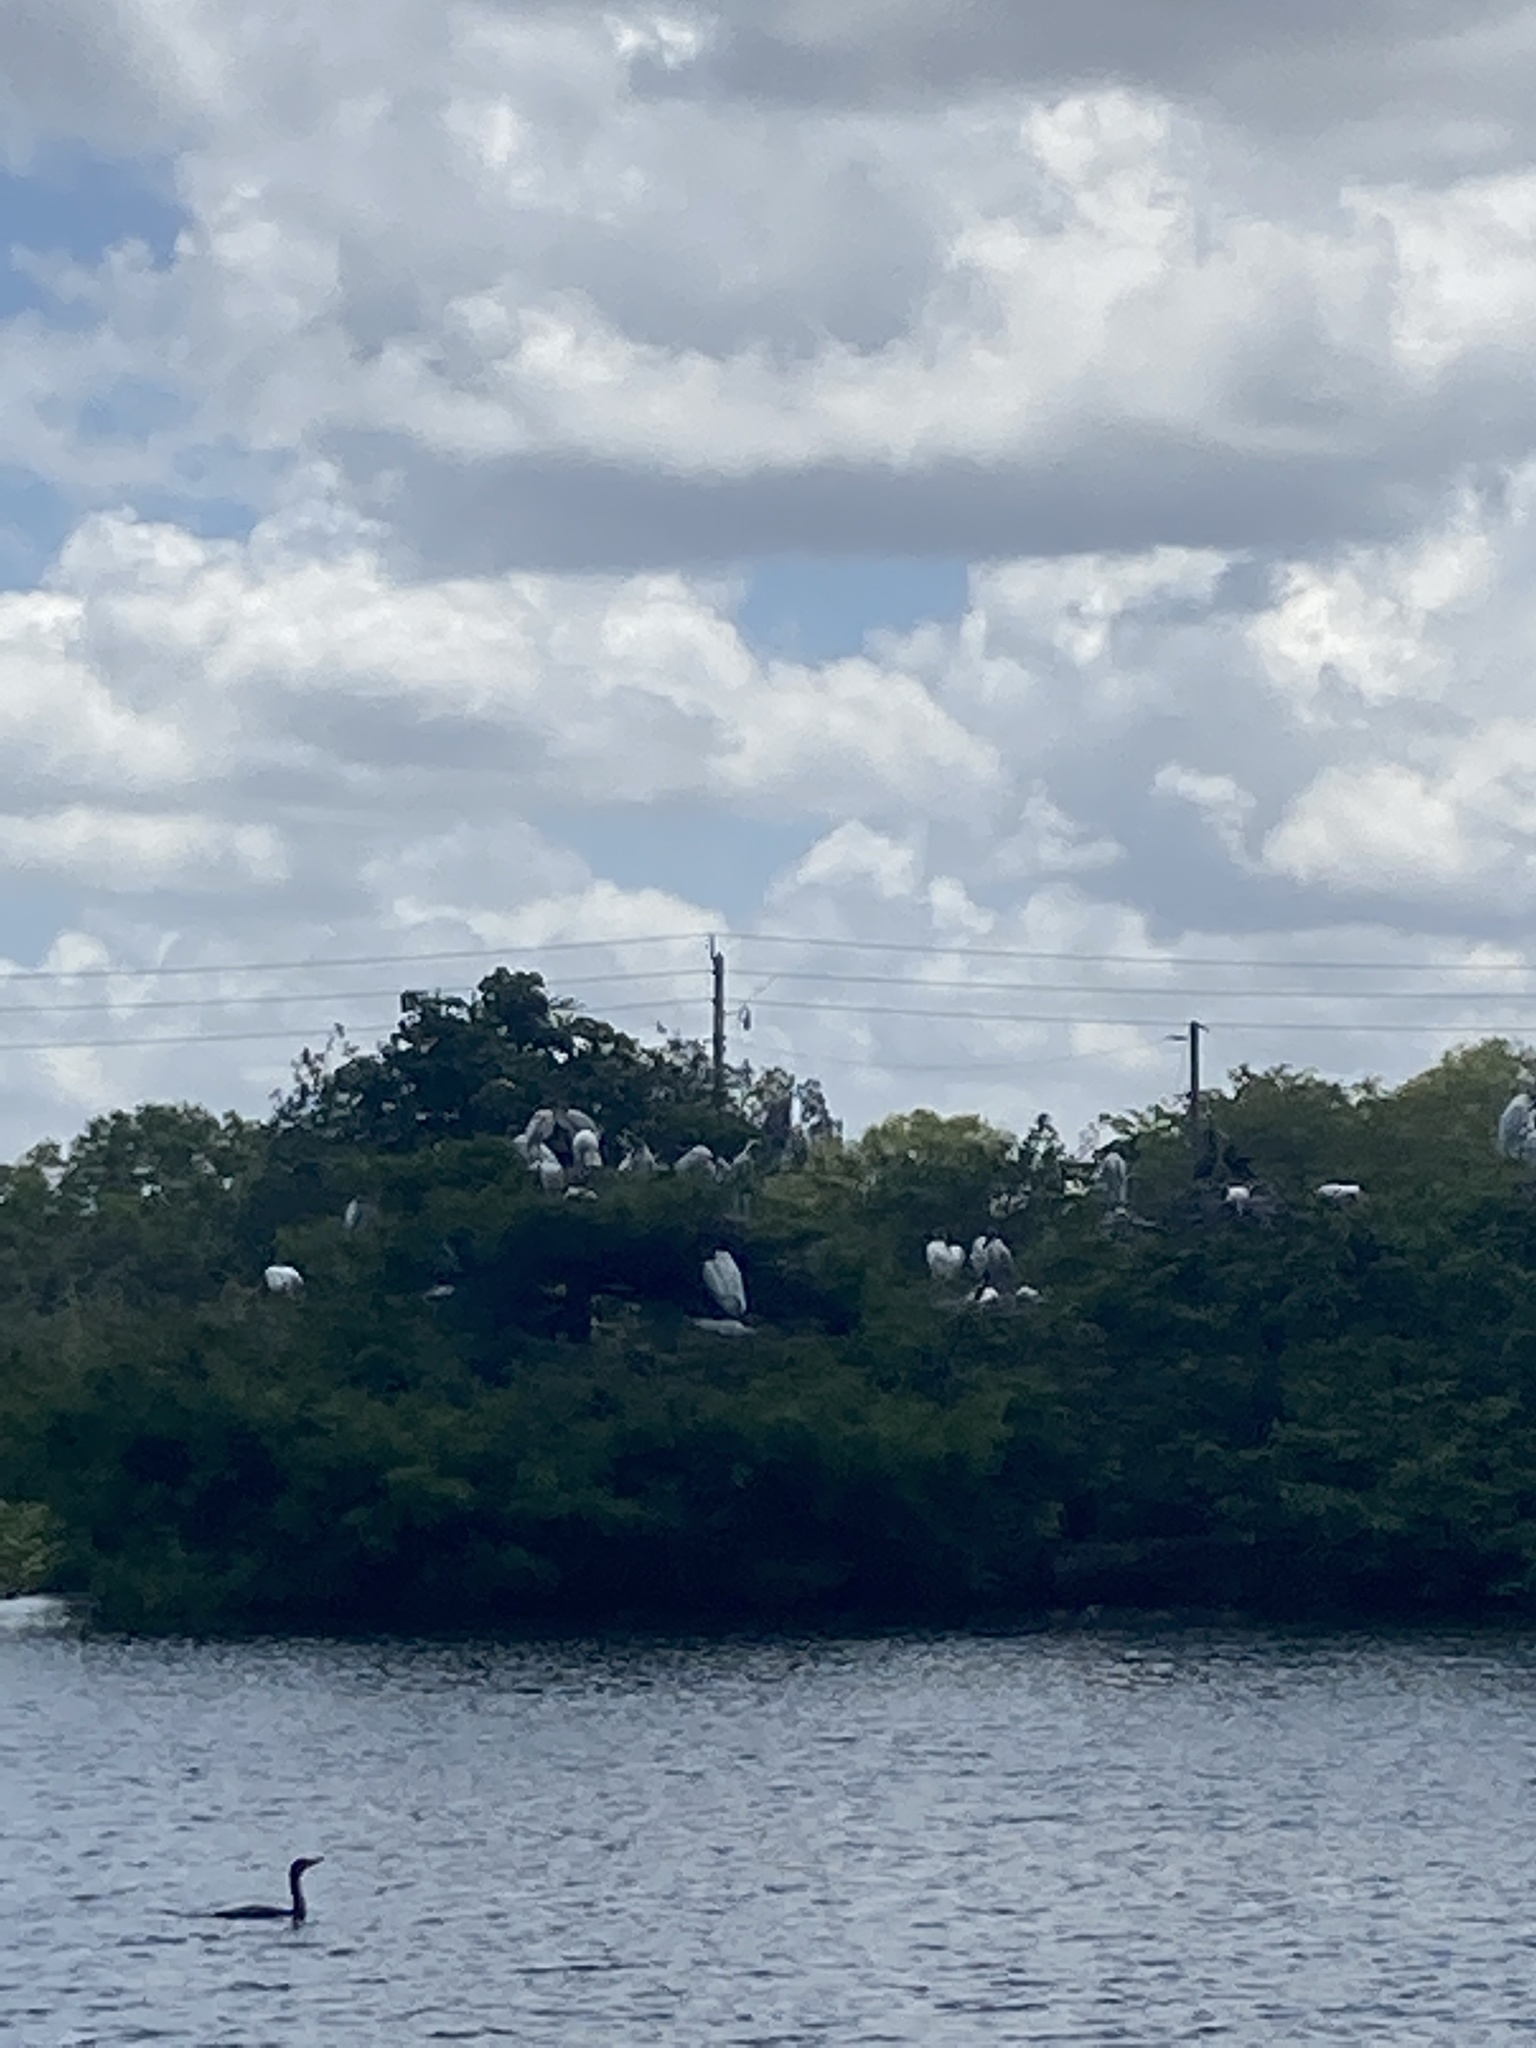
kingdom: Animalia
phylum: Chordata
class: Aves
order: Ciconiiformes
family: Ciconiidae
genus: Mycteria
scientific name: Mycteria americana
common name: Wood stork
